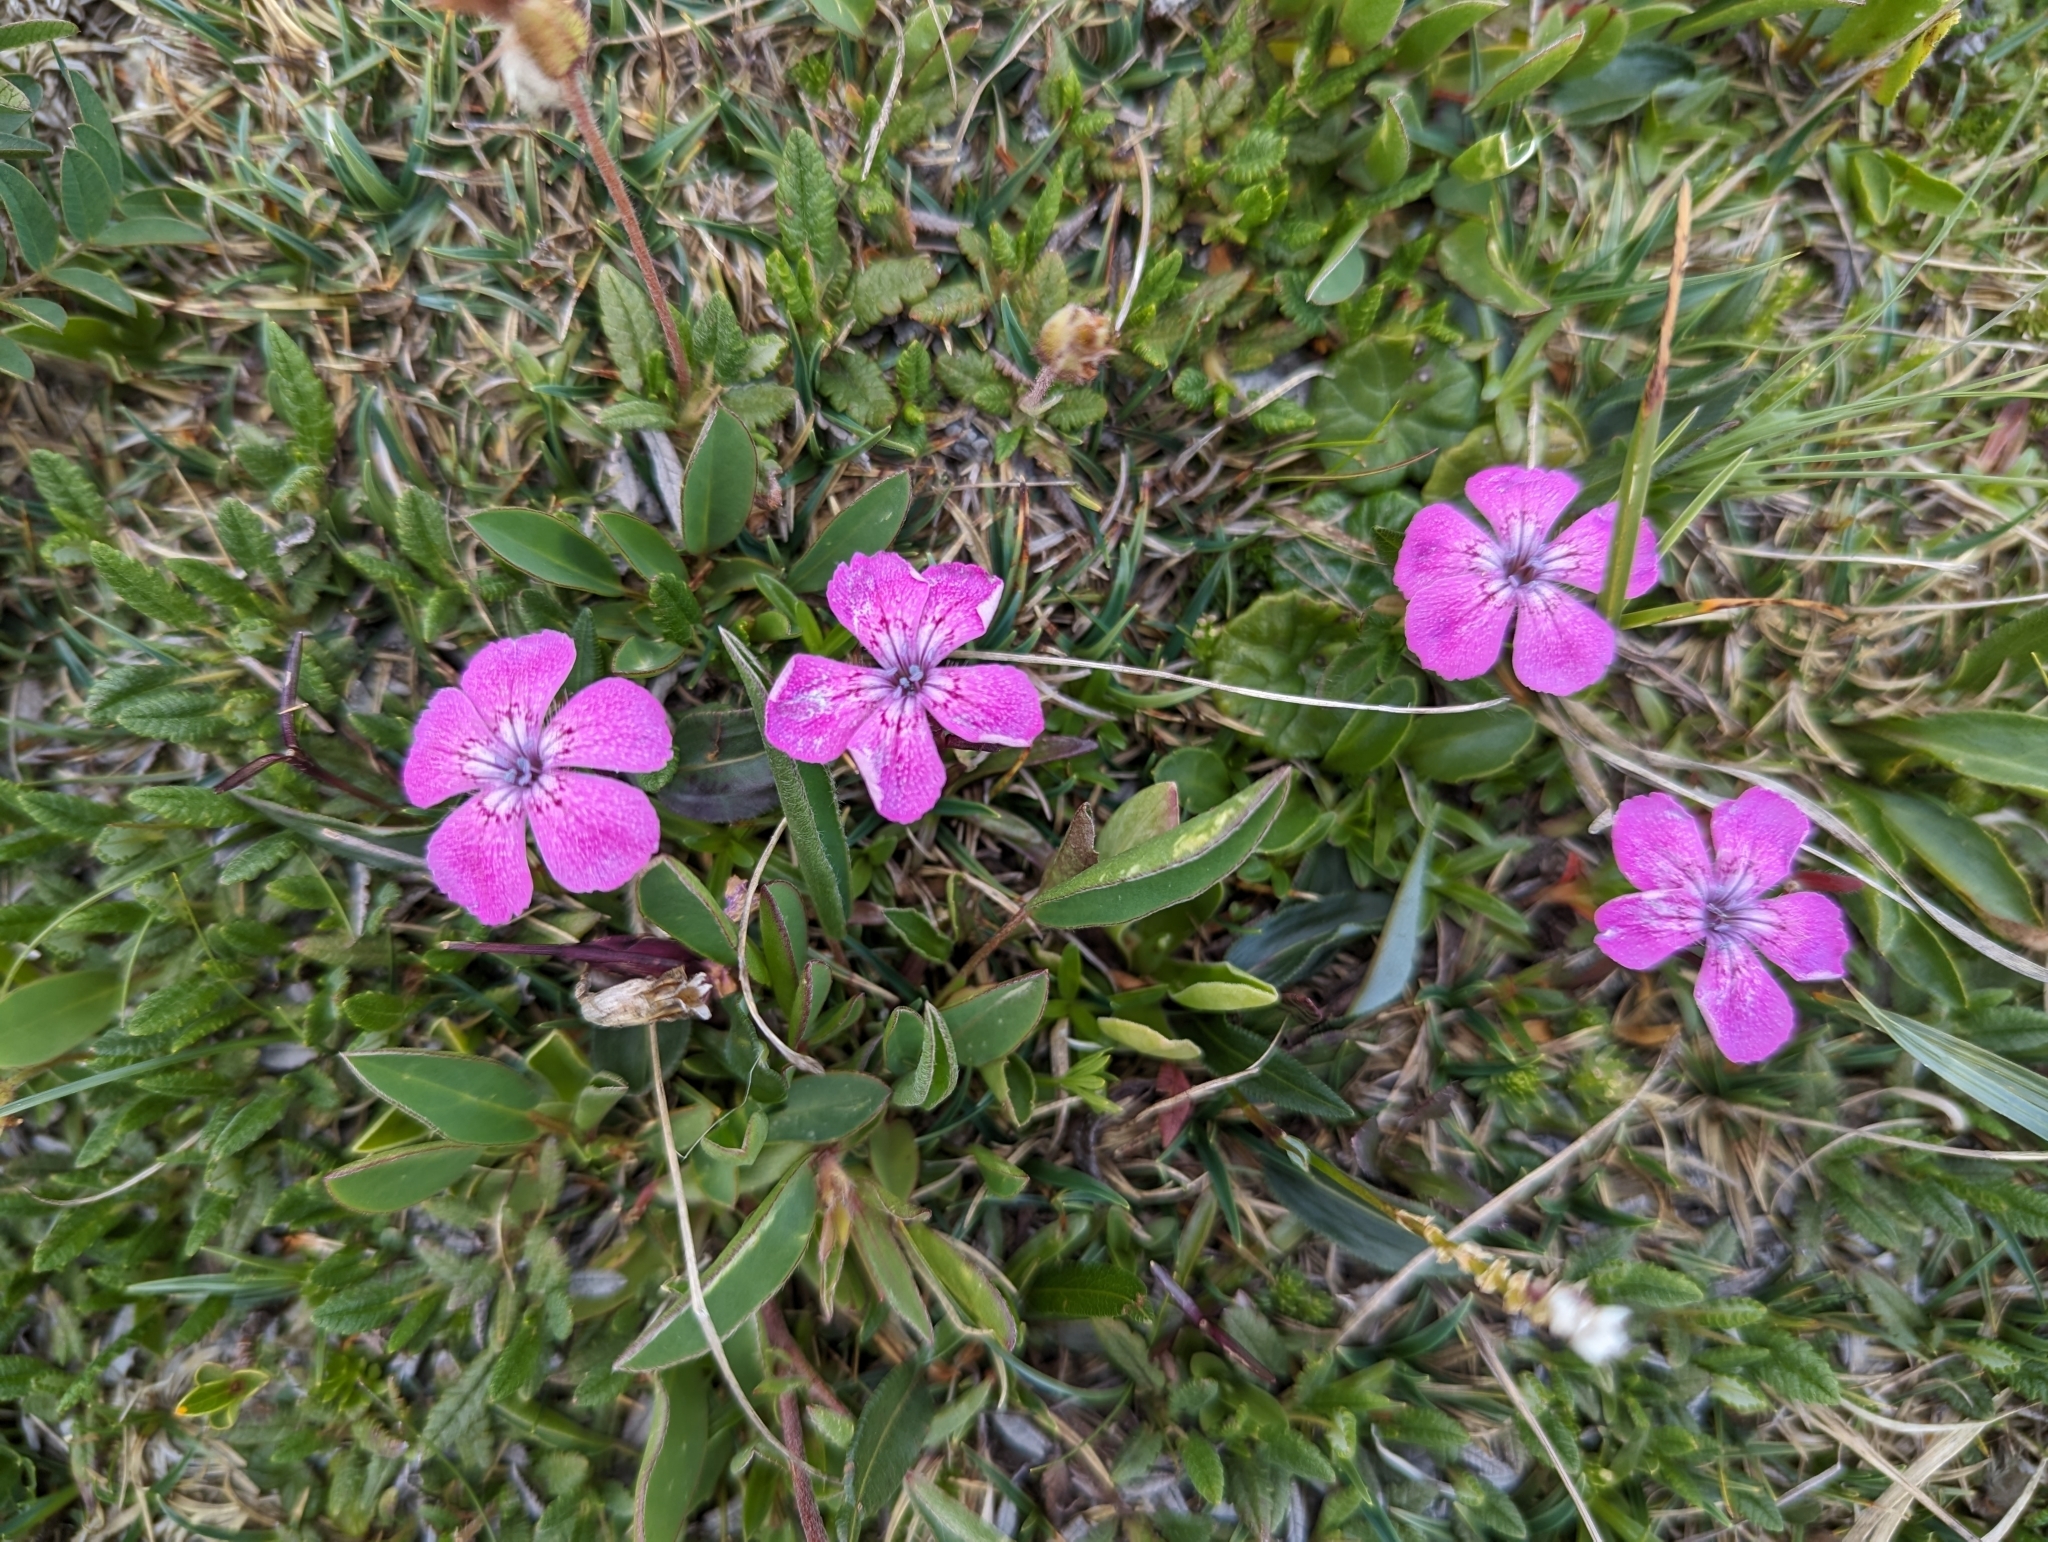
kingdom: Plantae
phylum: Tracheophyta
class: Magnoliopsida
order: Caryophyllales
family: Caryophyllaceae
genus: Dianthus
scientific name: Dianthus alpinus
